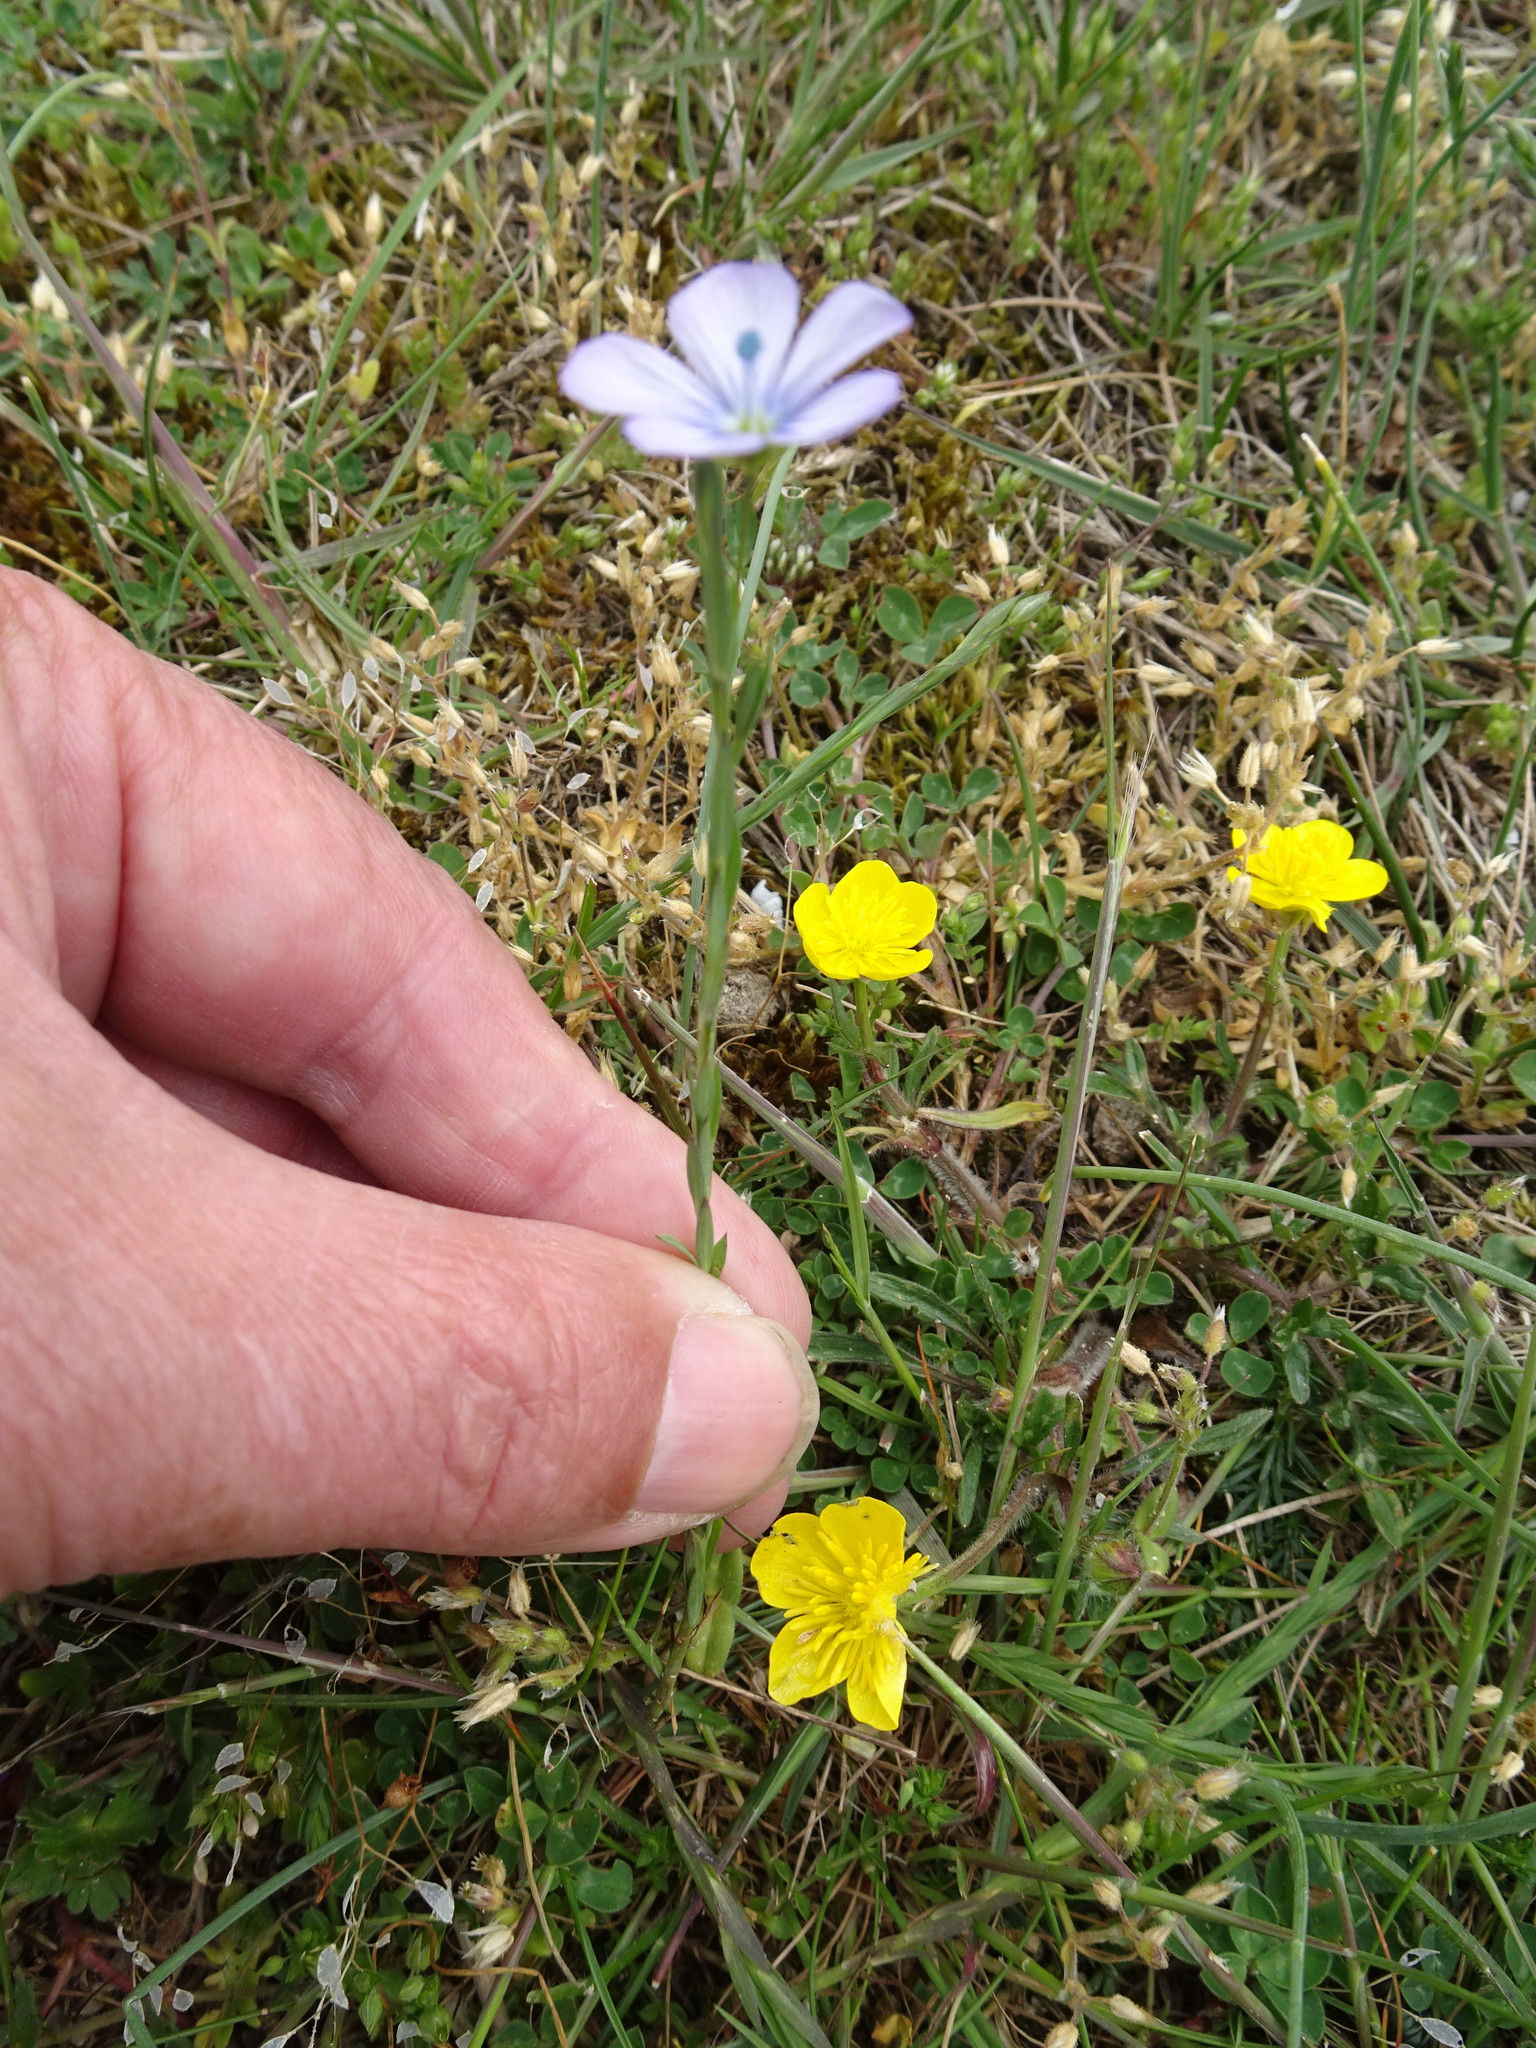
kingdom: Plantae
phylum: Tracheophyta
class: Magnoliopsida
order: Malpighiales
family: Linaceae
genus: Linum
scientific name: Linum bienne
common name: Pale flax
